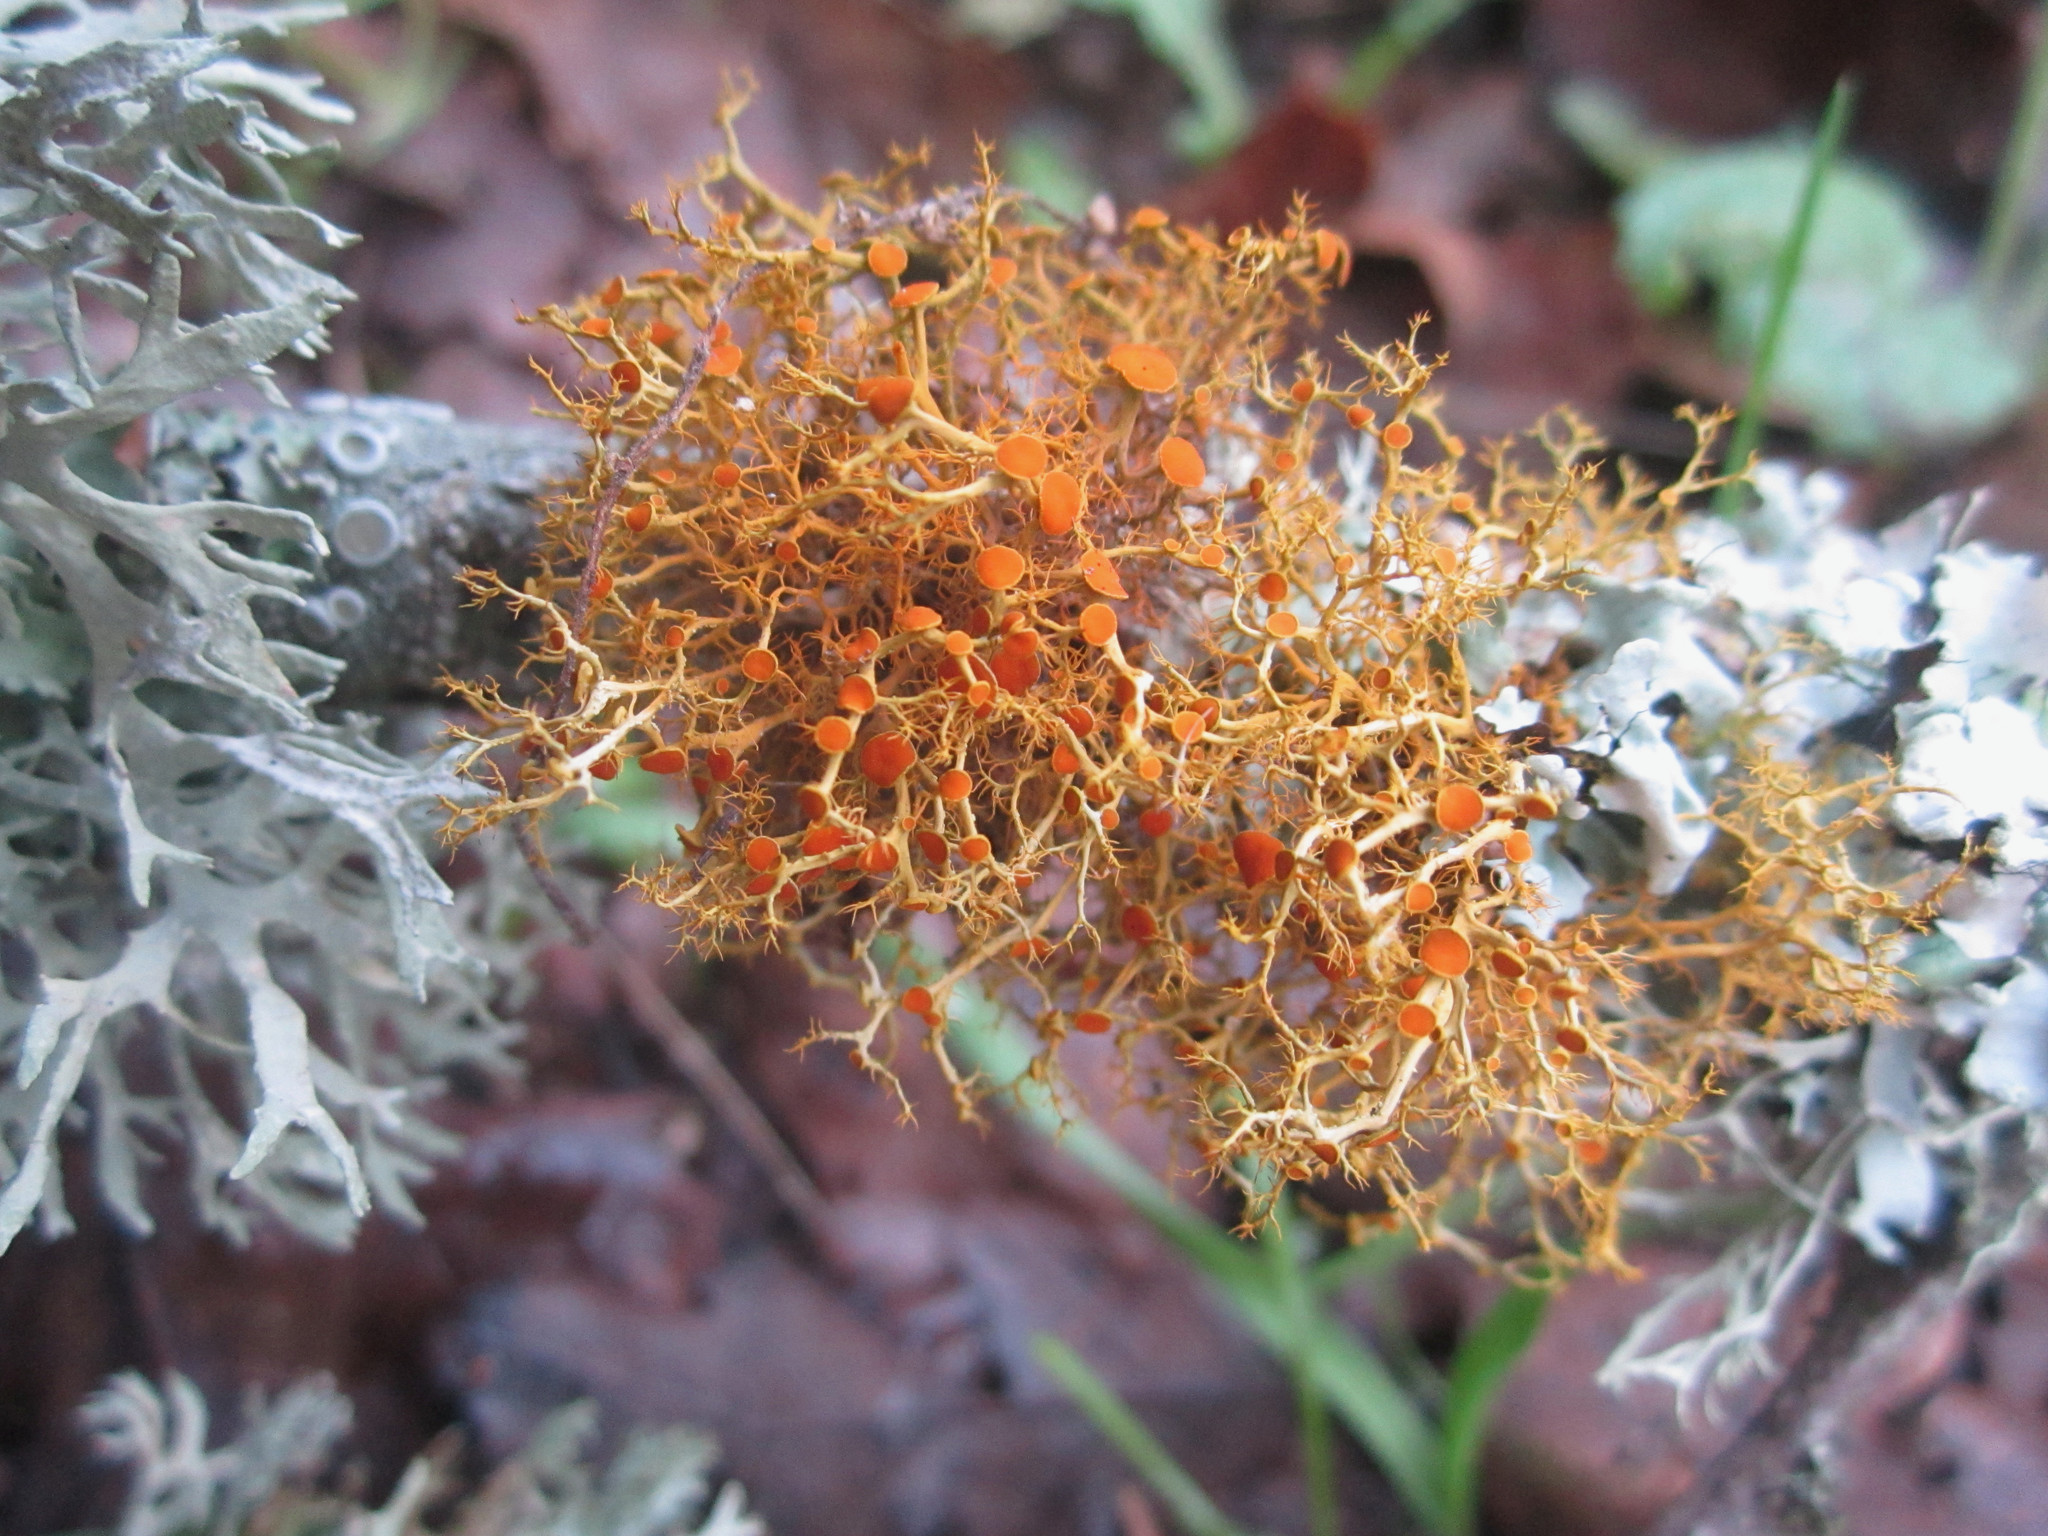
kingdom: Fungi
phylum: Ascomycota
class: Lecanoromycetes
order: Teloschistales
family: Teloschistaceae
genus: Teloschistes
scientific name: Teloschistes flavicans
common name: Golden hair-lichen
